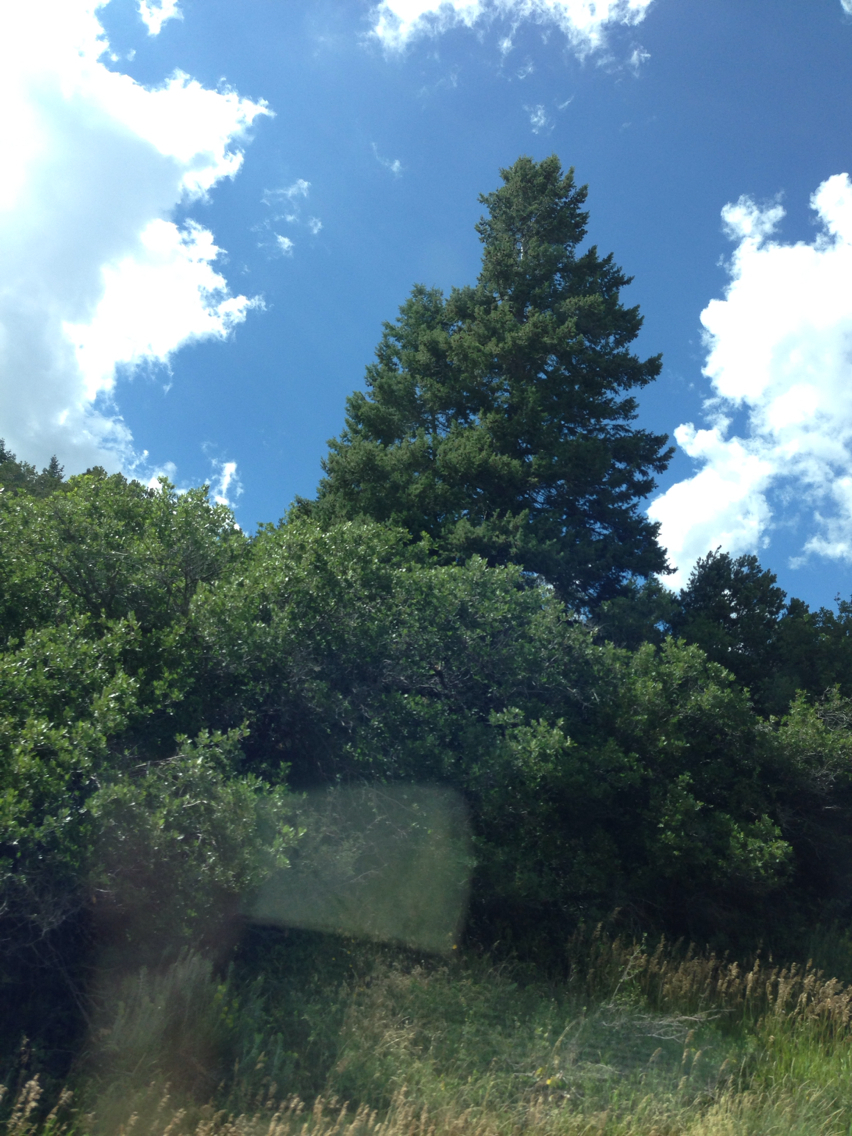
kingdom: Plantae
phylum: Tracheophyta
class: Pinopsida
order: Pinales
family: Pinaceae
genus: Pseudotsuga
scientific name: Pseudotsuga menziesii
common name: Douglas fir
